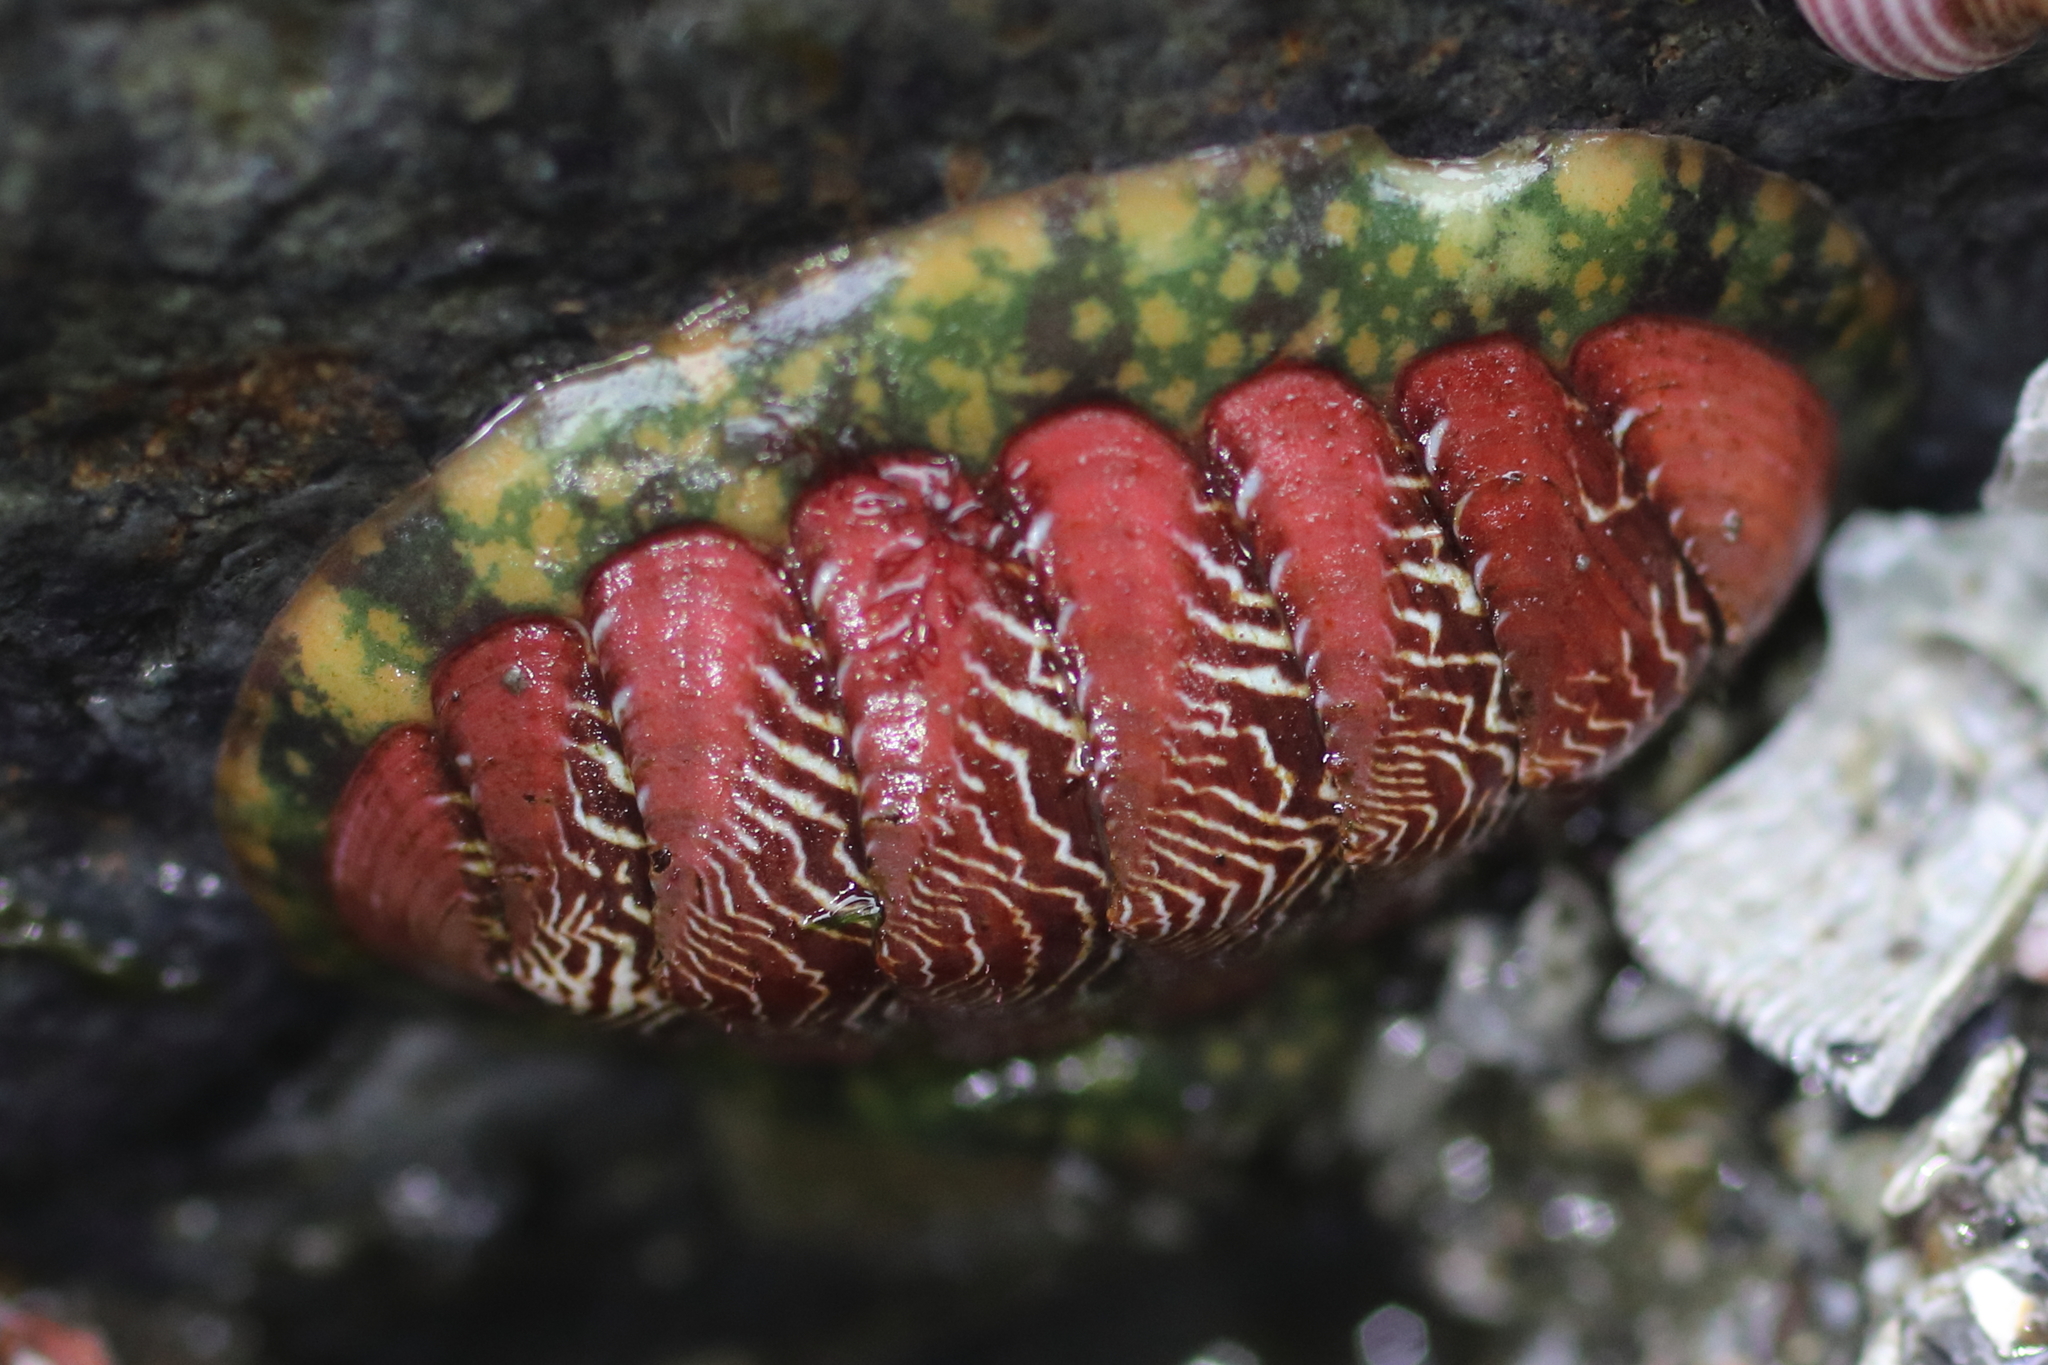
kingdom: Animalia
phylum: Mollusca
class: Polyplacophora
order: Chitonida
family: Tonicellidae
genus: Tonicella
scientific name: Tonicella insignis
